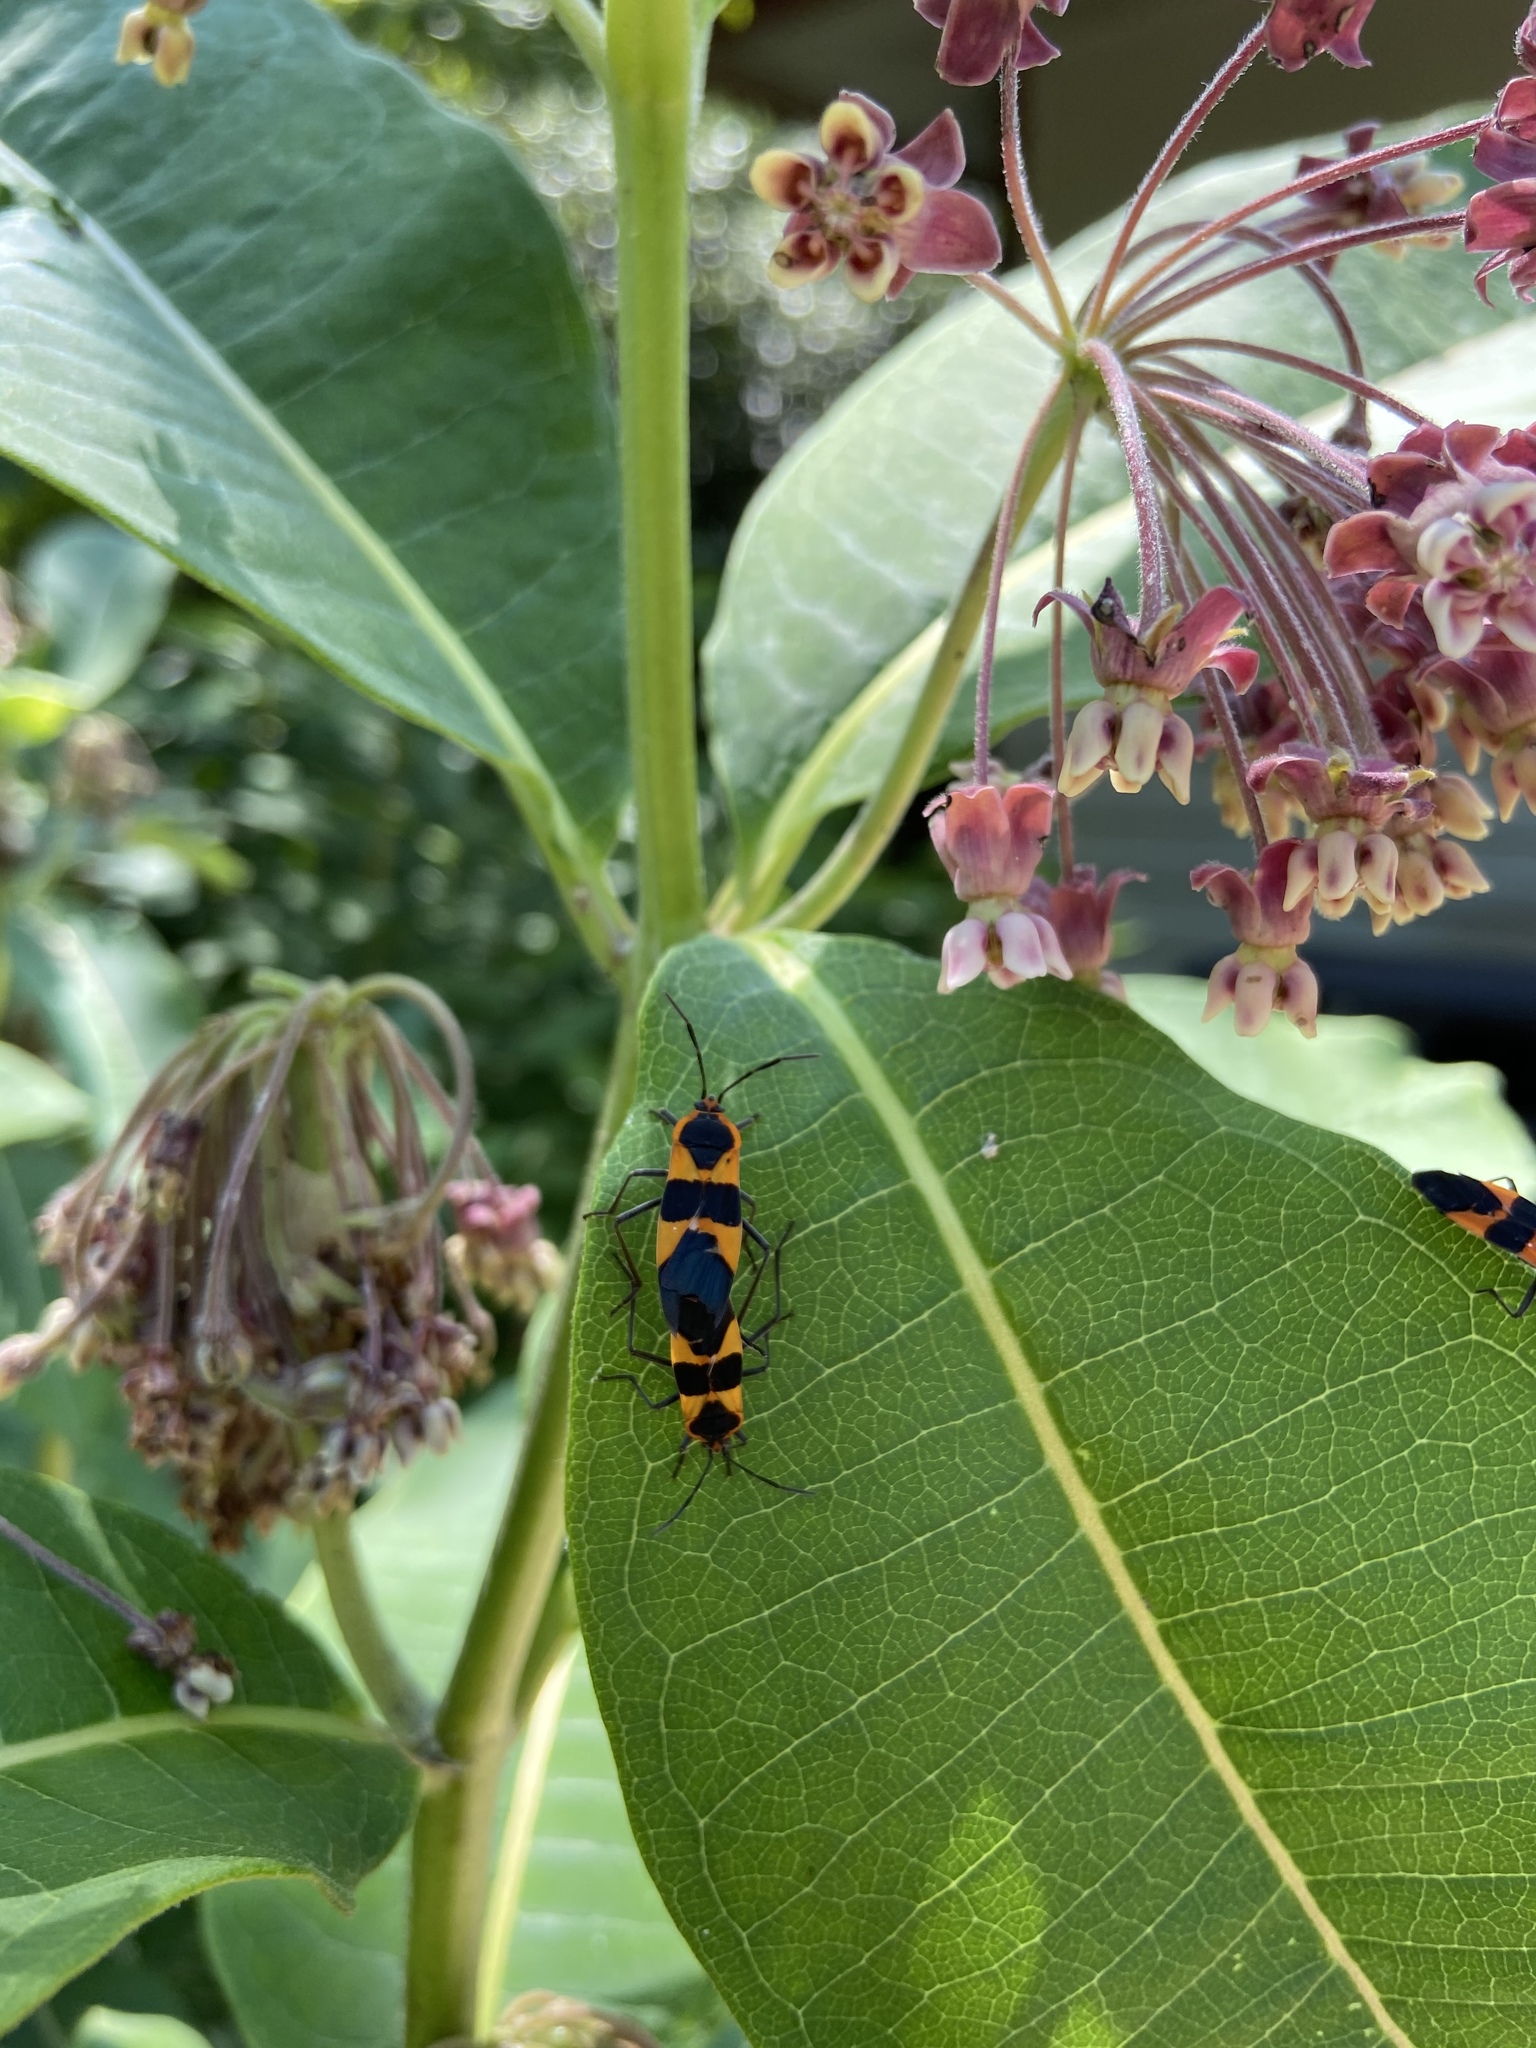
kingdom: Animalia
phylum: Arthropoda
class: Insecta
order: Hemiptera
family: Lygaeidae
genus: Oncopeltus
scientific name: Oncopeltus fasciatus
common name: Large milkweed bug
